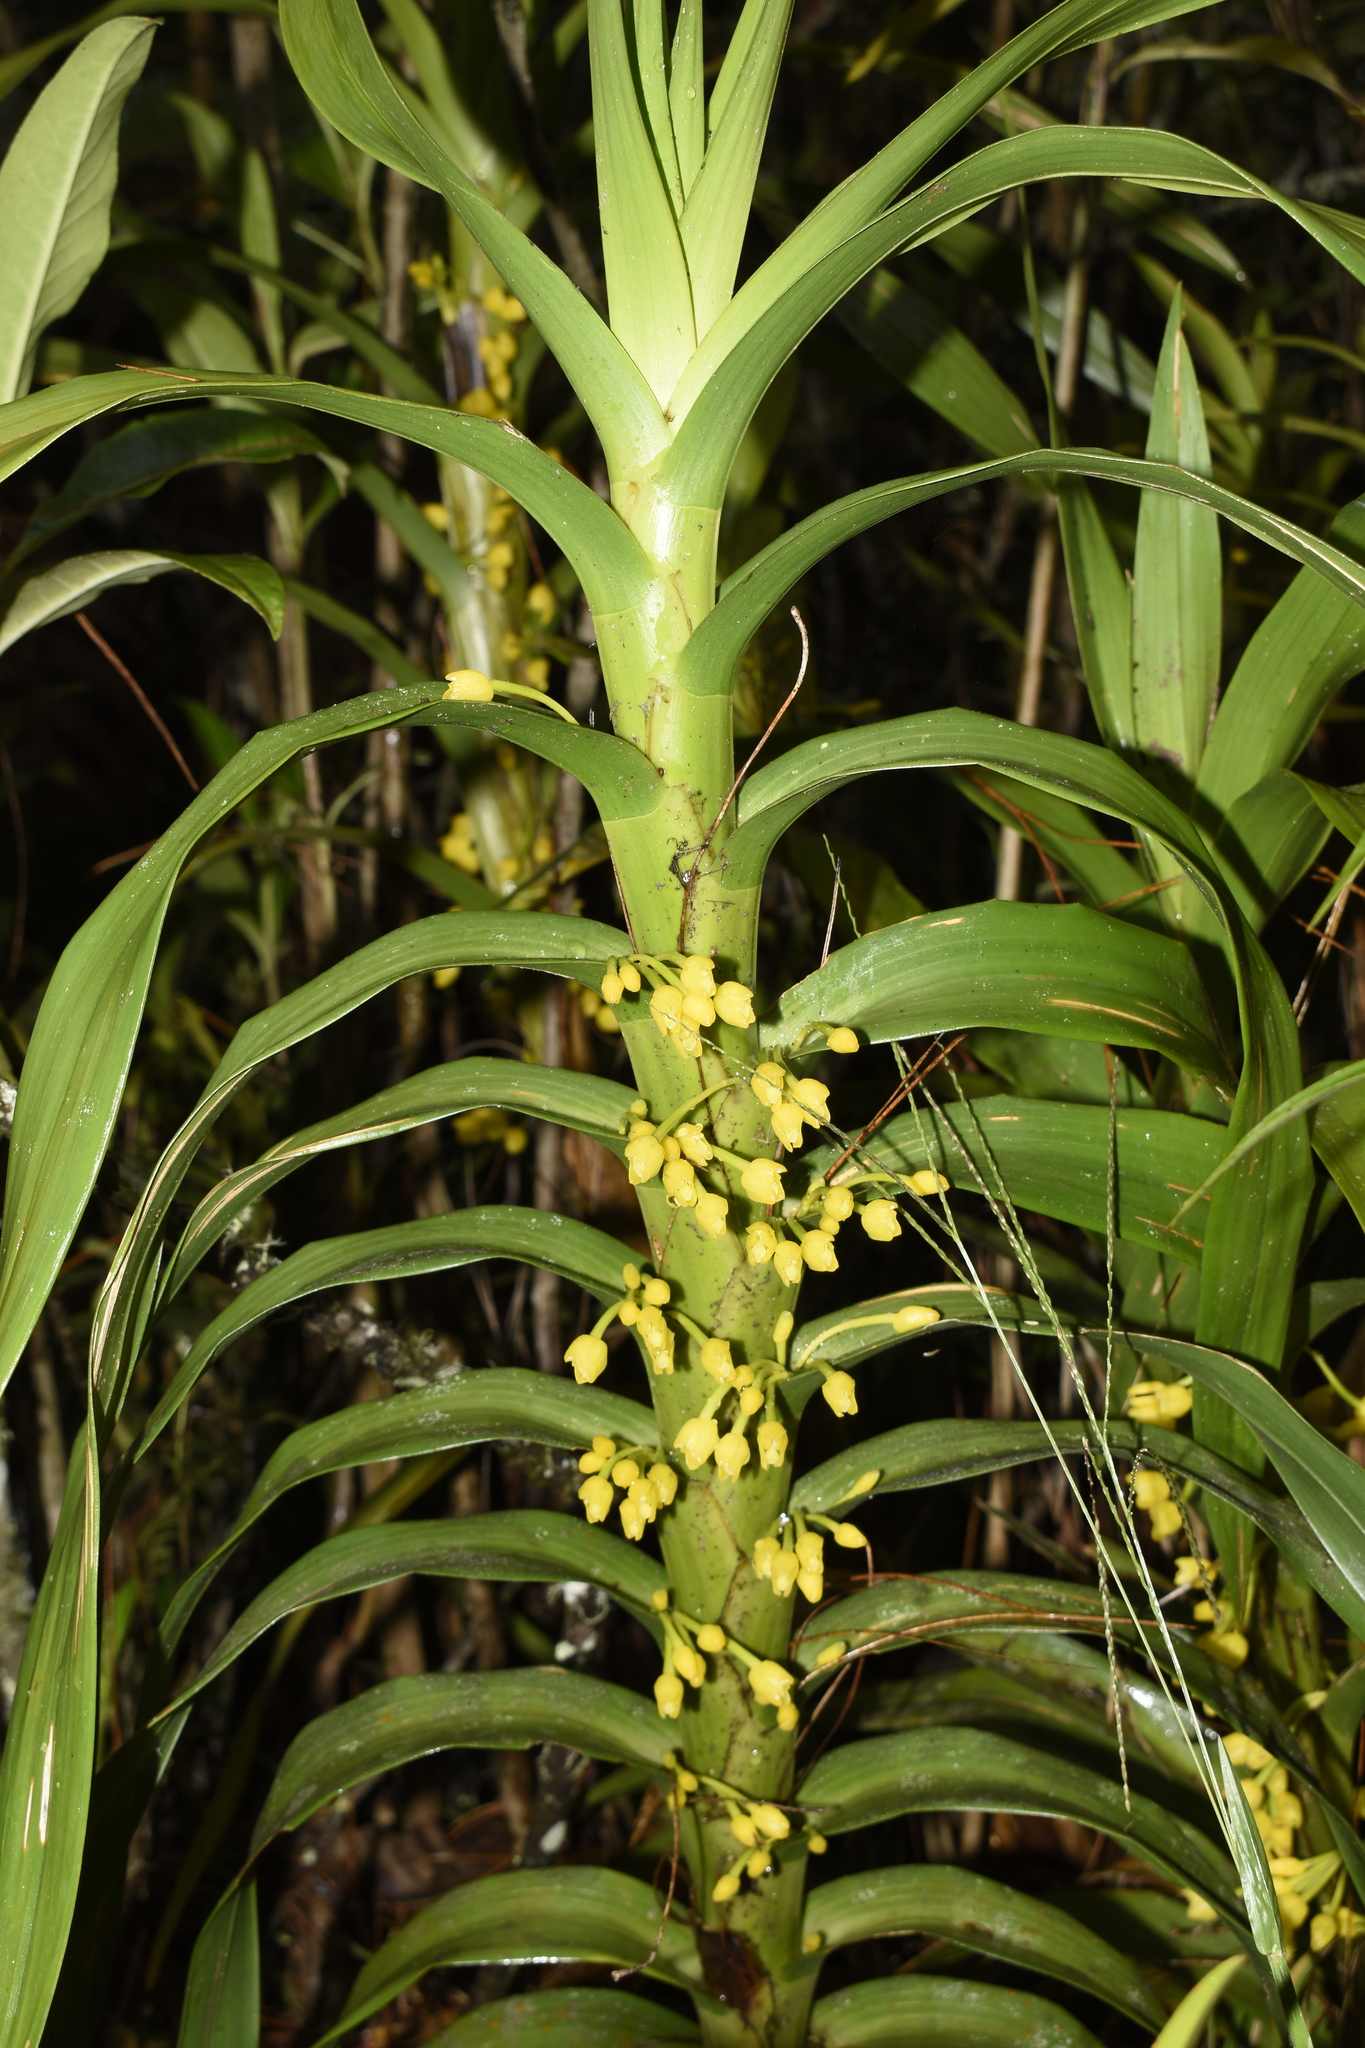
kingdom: Plantae
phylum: Tracheophyta
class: Liliopsida
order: Asparagales
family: Orchidaceae
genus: Maxillaria
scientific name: Maxillaria aurea
